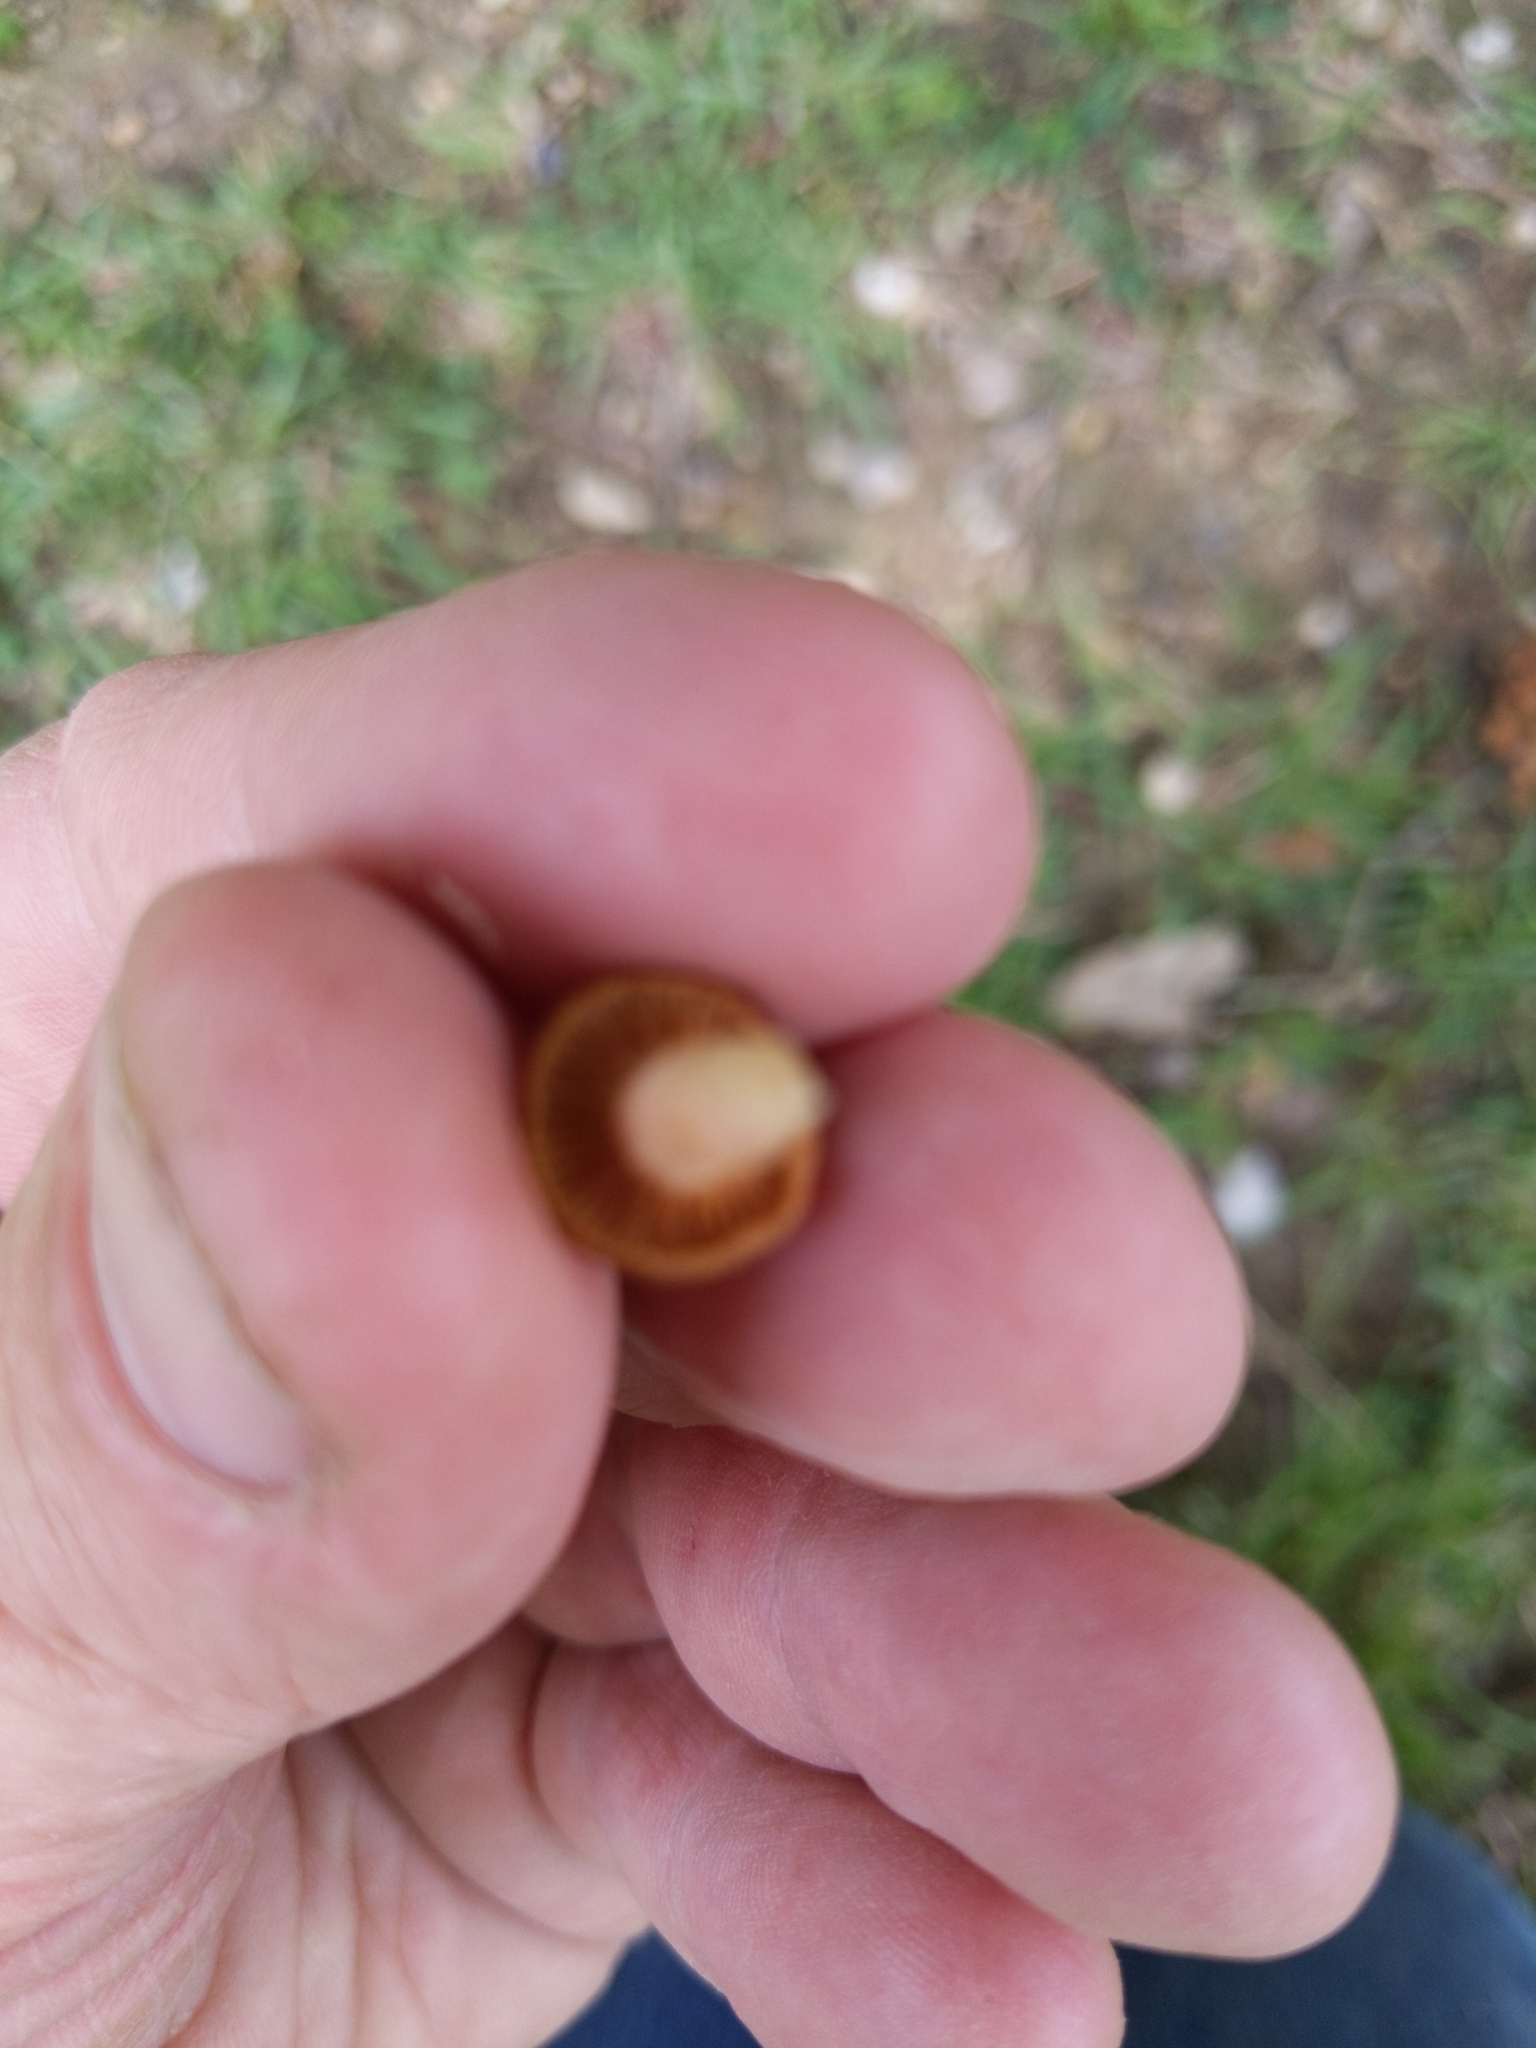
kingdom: Fungi
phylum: Basidiomycota
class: Agaricomycetes
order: Agaricales
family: Physalacriaceae
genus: Desarmillaria
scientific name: Desarmillaria caespitosa
